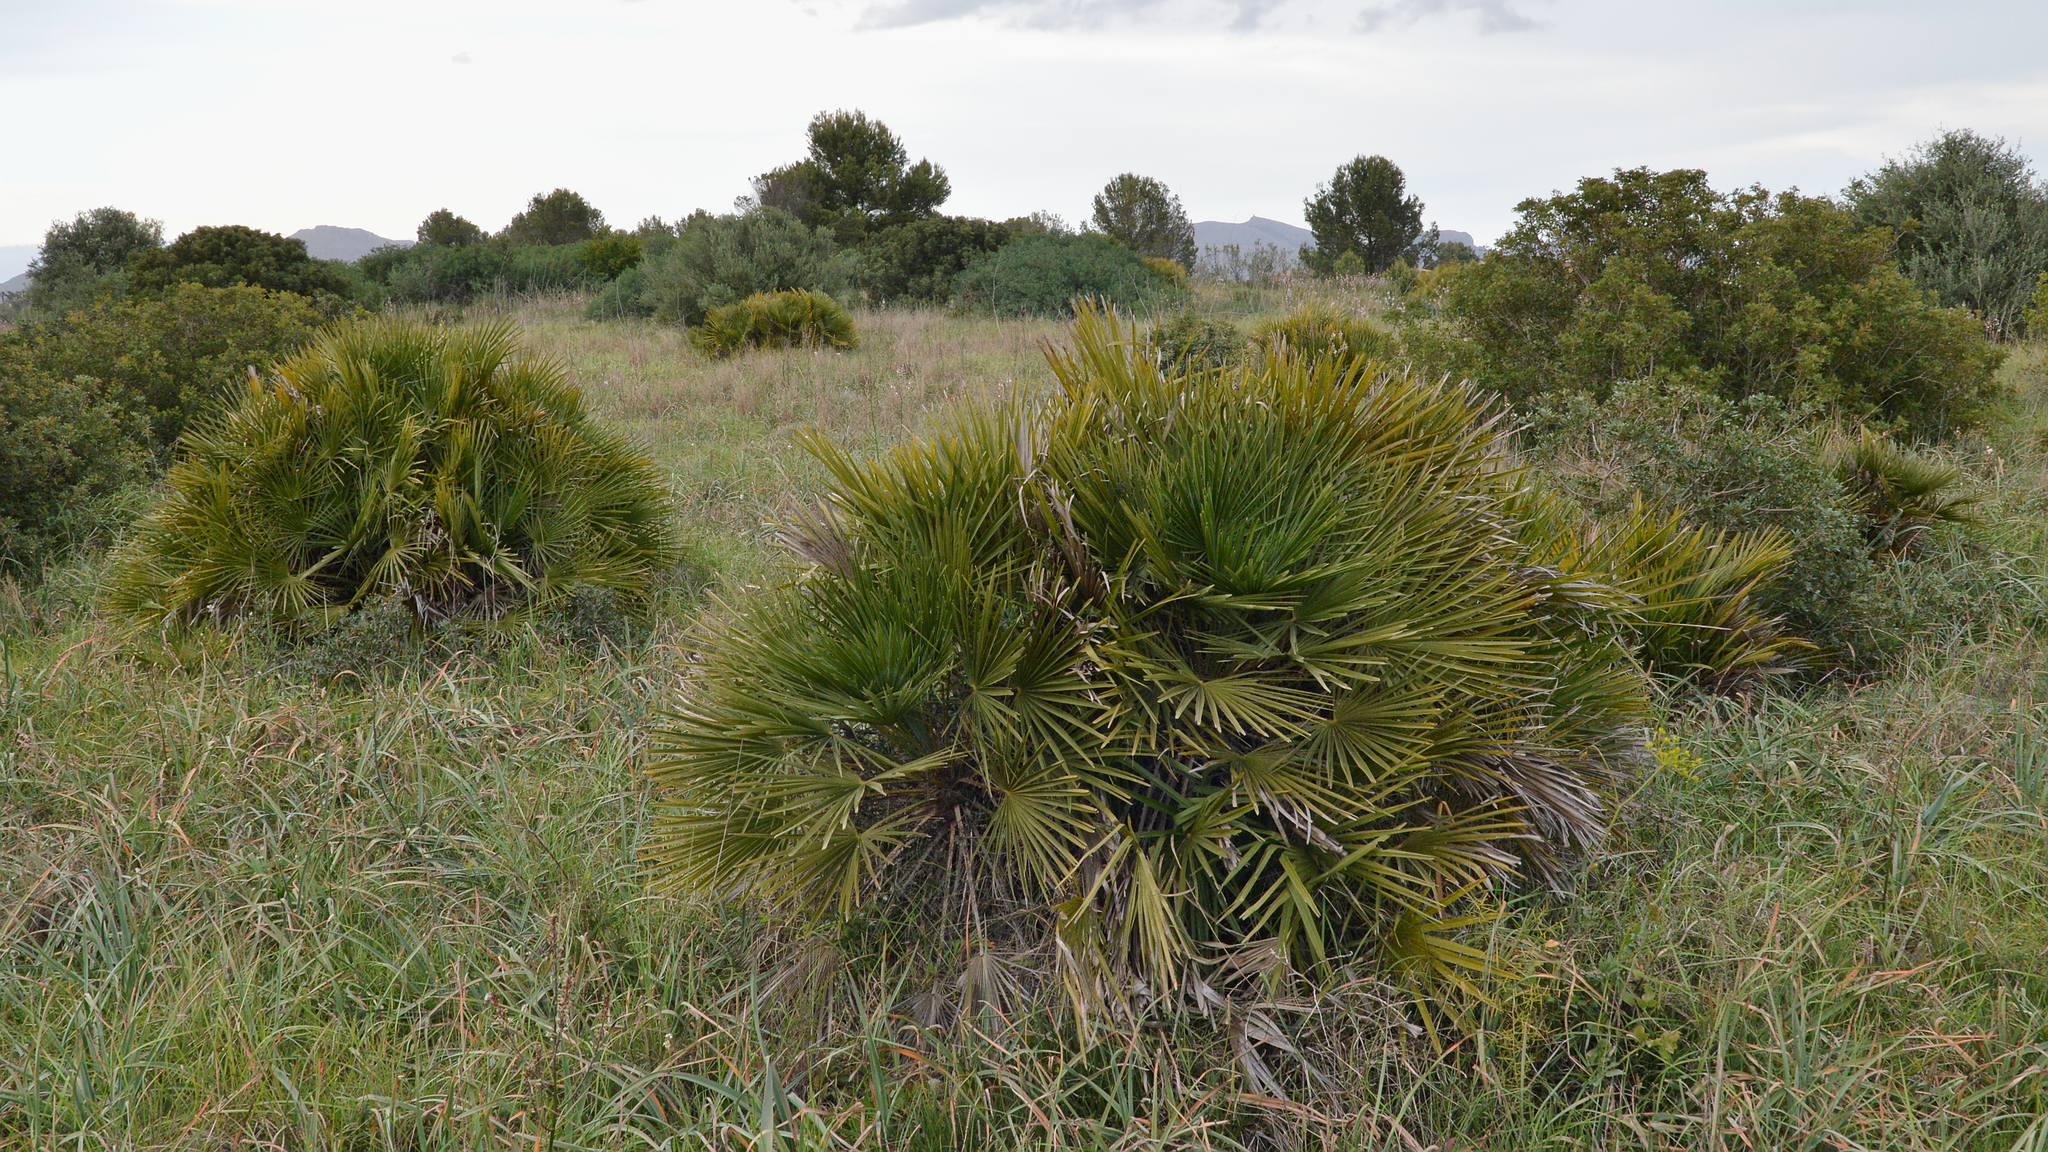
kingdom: Plantae
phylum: Tracheophyta
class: Liliopsida
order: Arecales
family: Arecaceae
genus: Chamaerops
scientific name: Chamaerops humilis
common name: Dwarf fan palm
